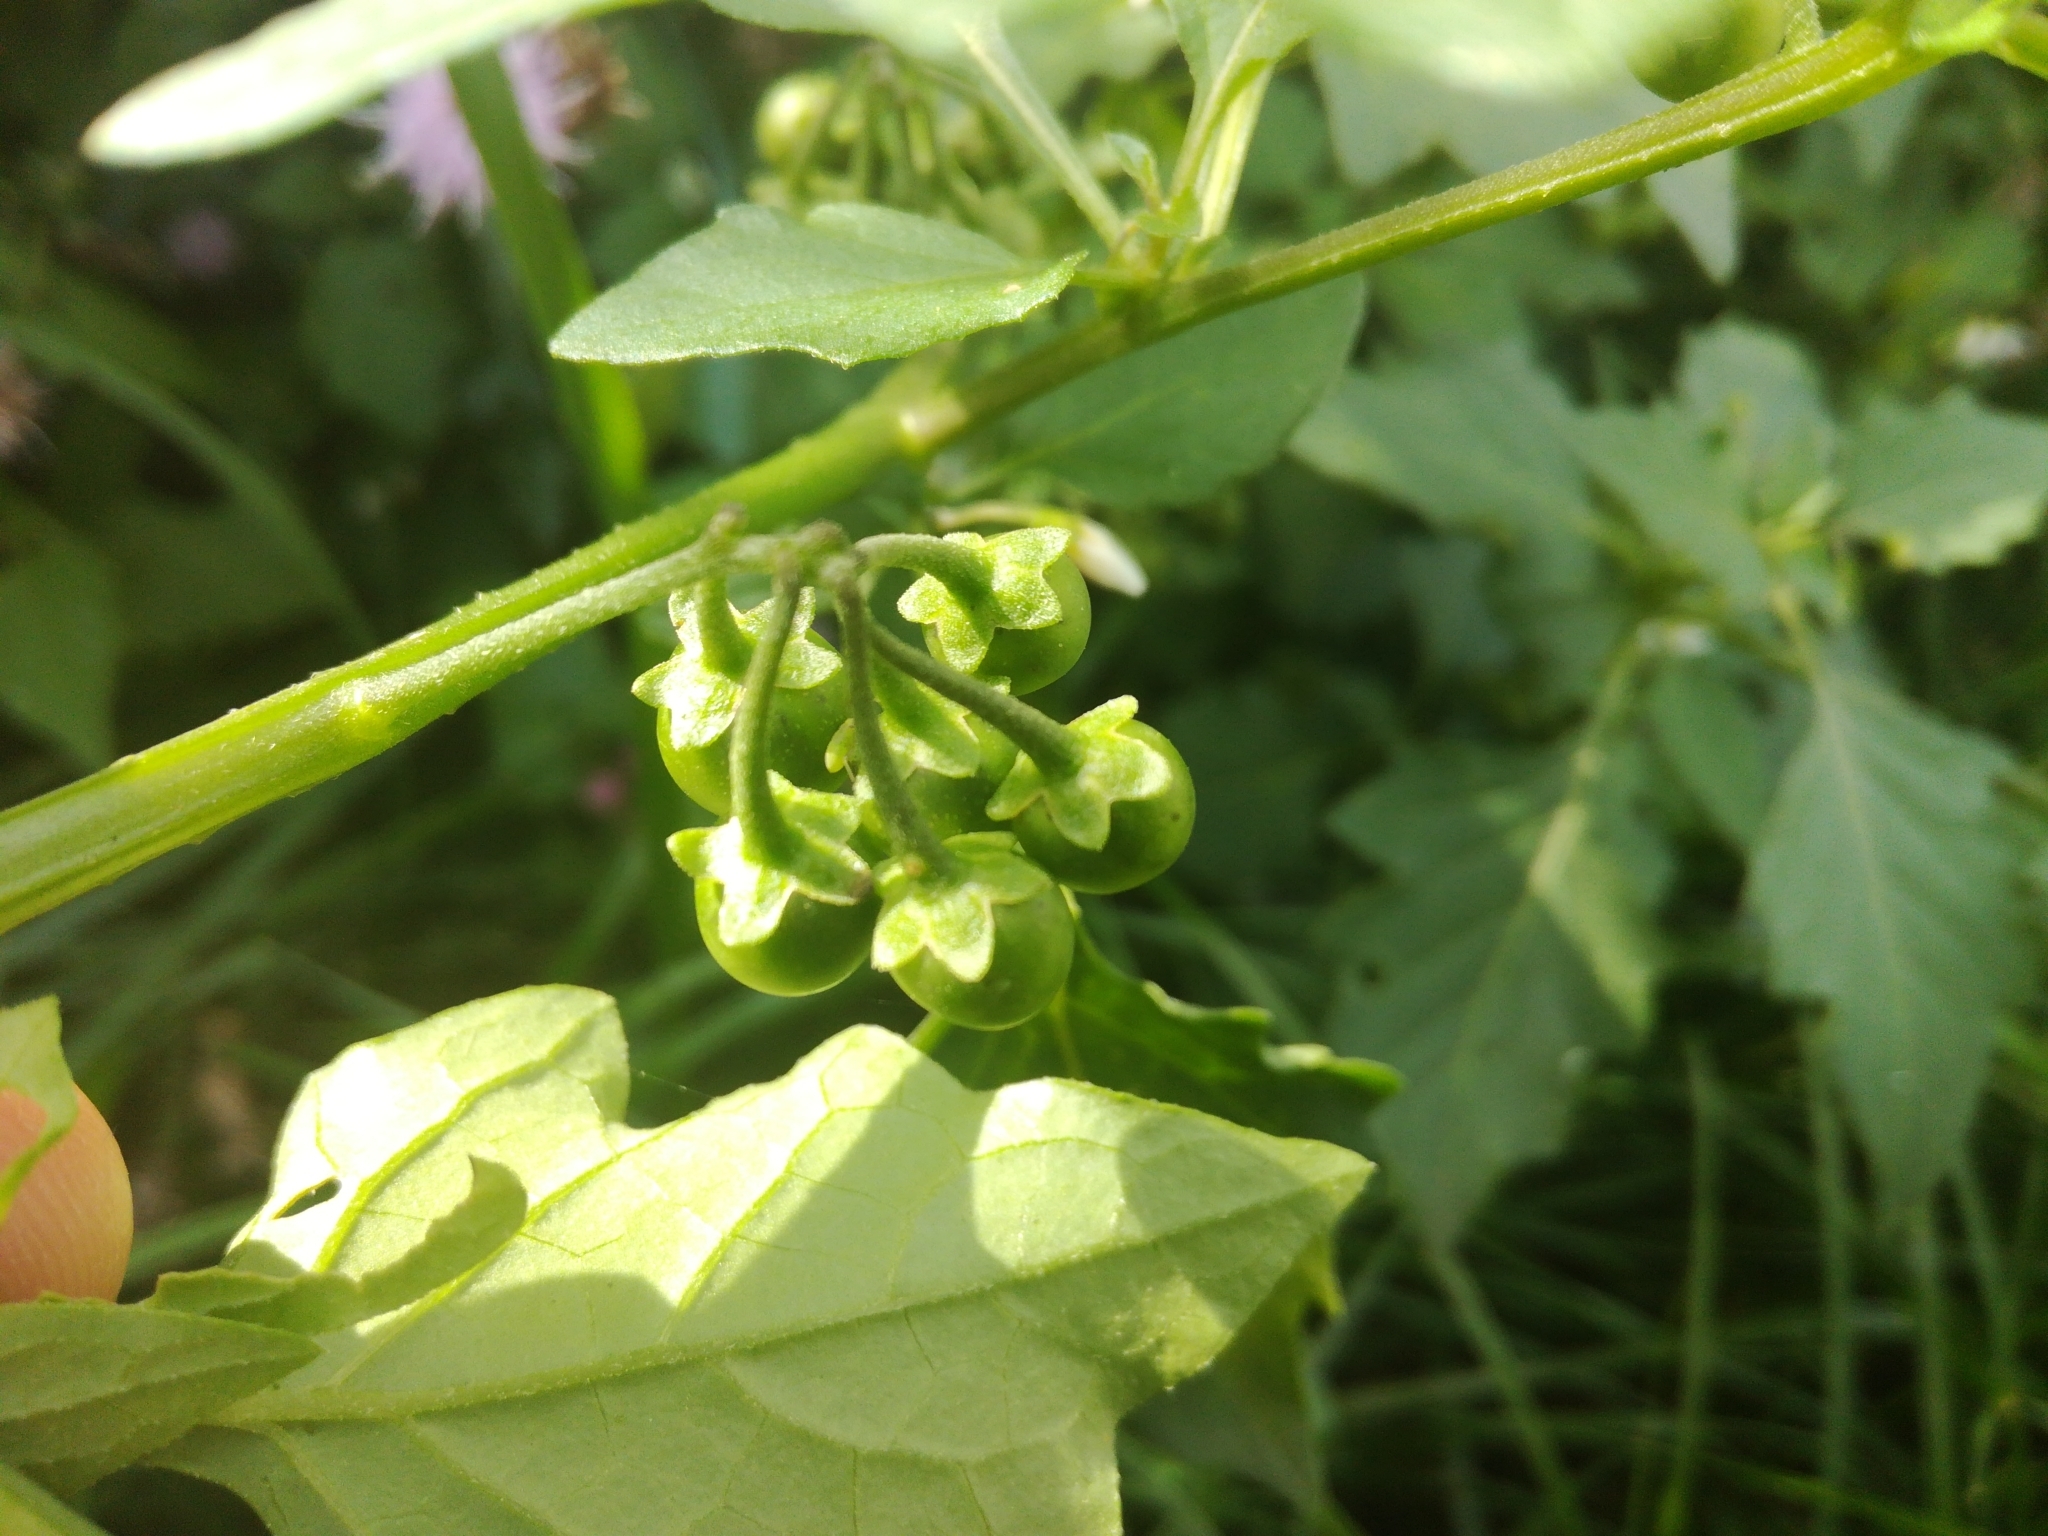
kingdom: Plantae
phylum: Tracheophyta
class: Magnoliopsida
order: Solanales
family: Solanaceae
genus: Solanum
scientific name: Solanum nigrum
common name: Black nightshade
